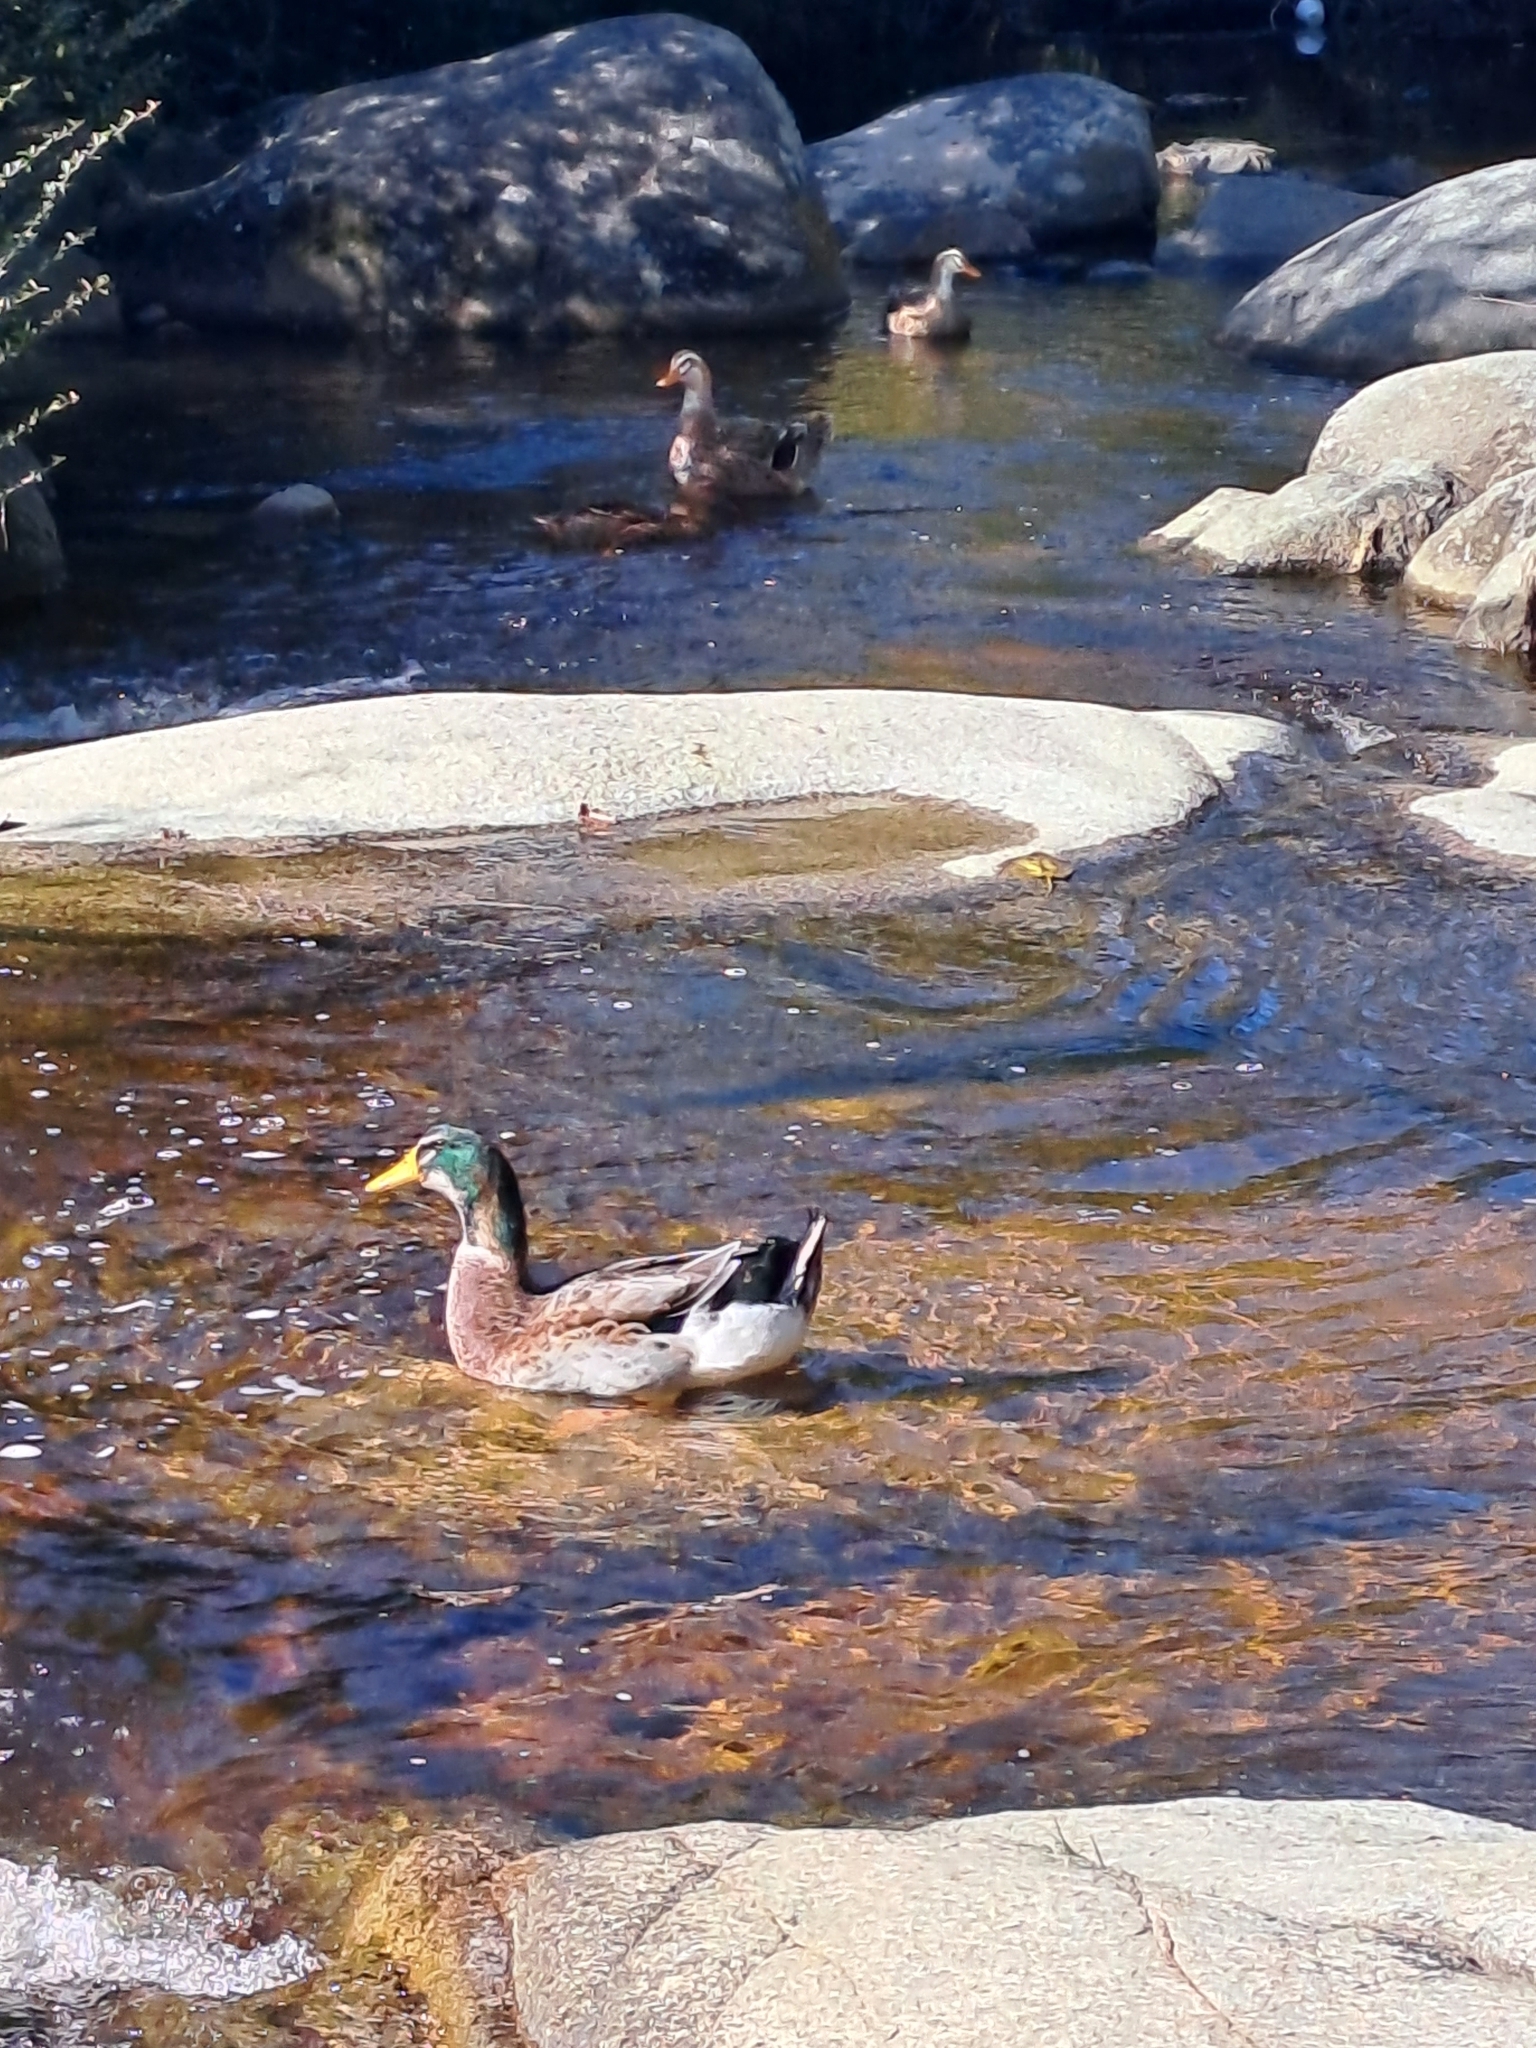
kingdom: Animalia
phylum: Chordata
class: Aves
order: Anseriformes
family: Anatidae
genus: Anas
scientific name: Anas platyrhynchos
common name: Mallard
